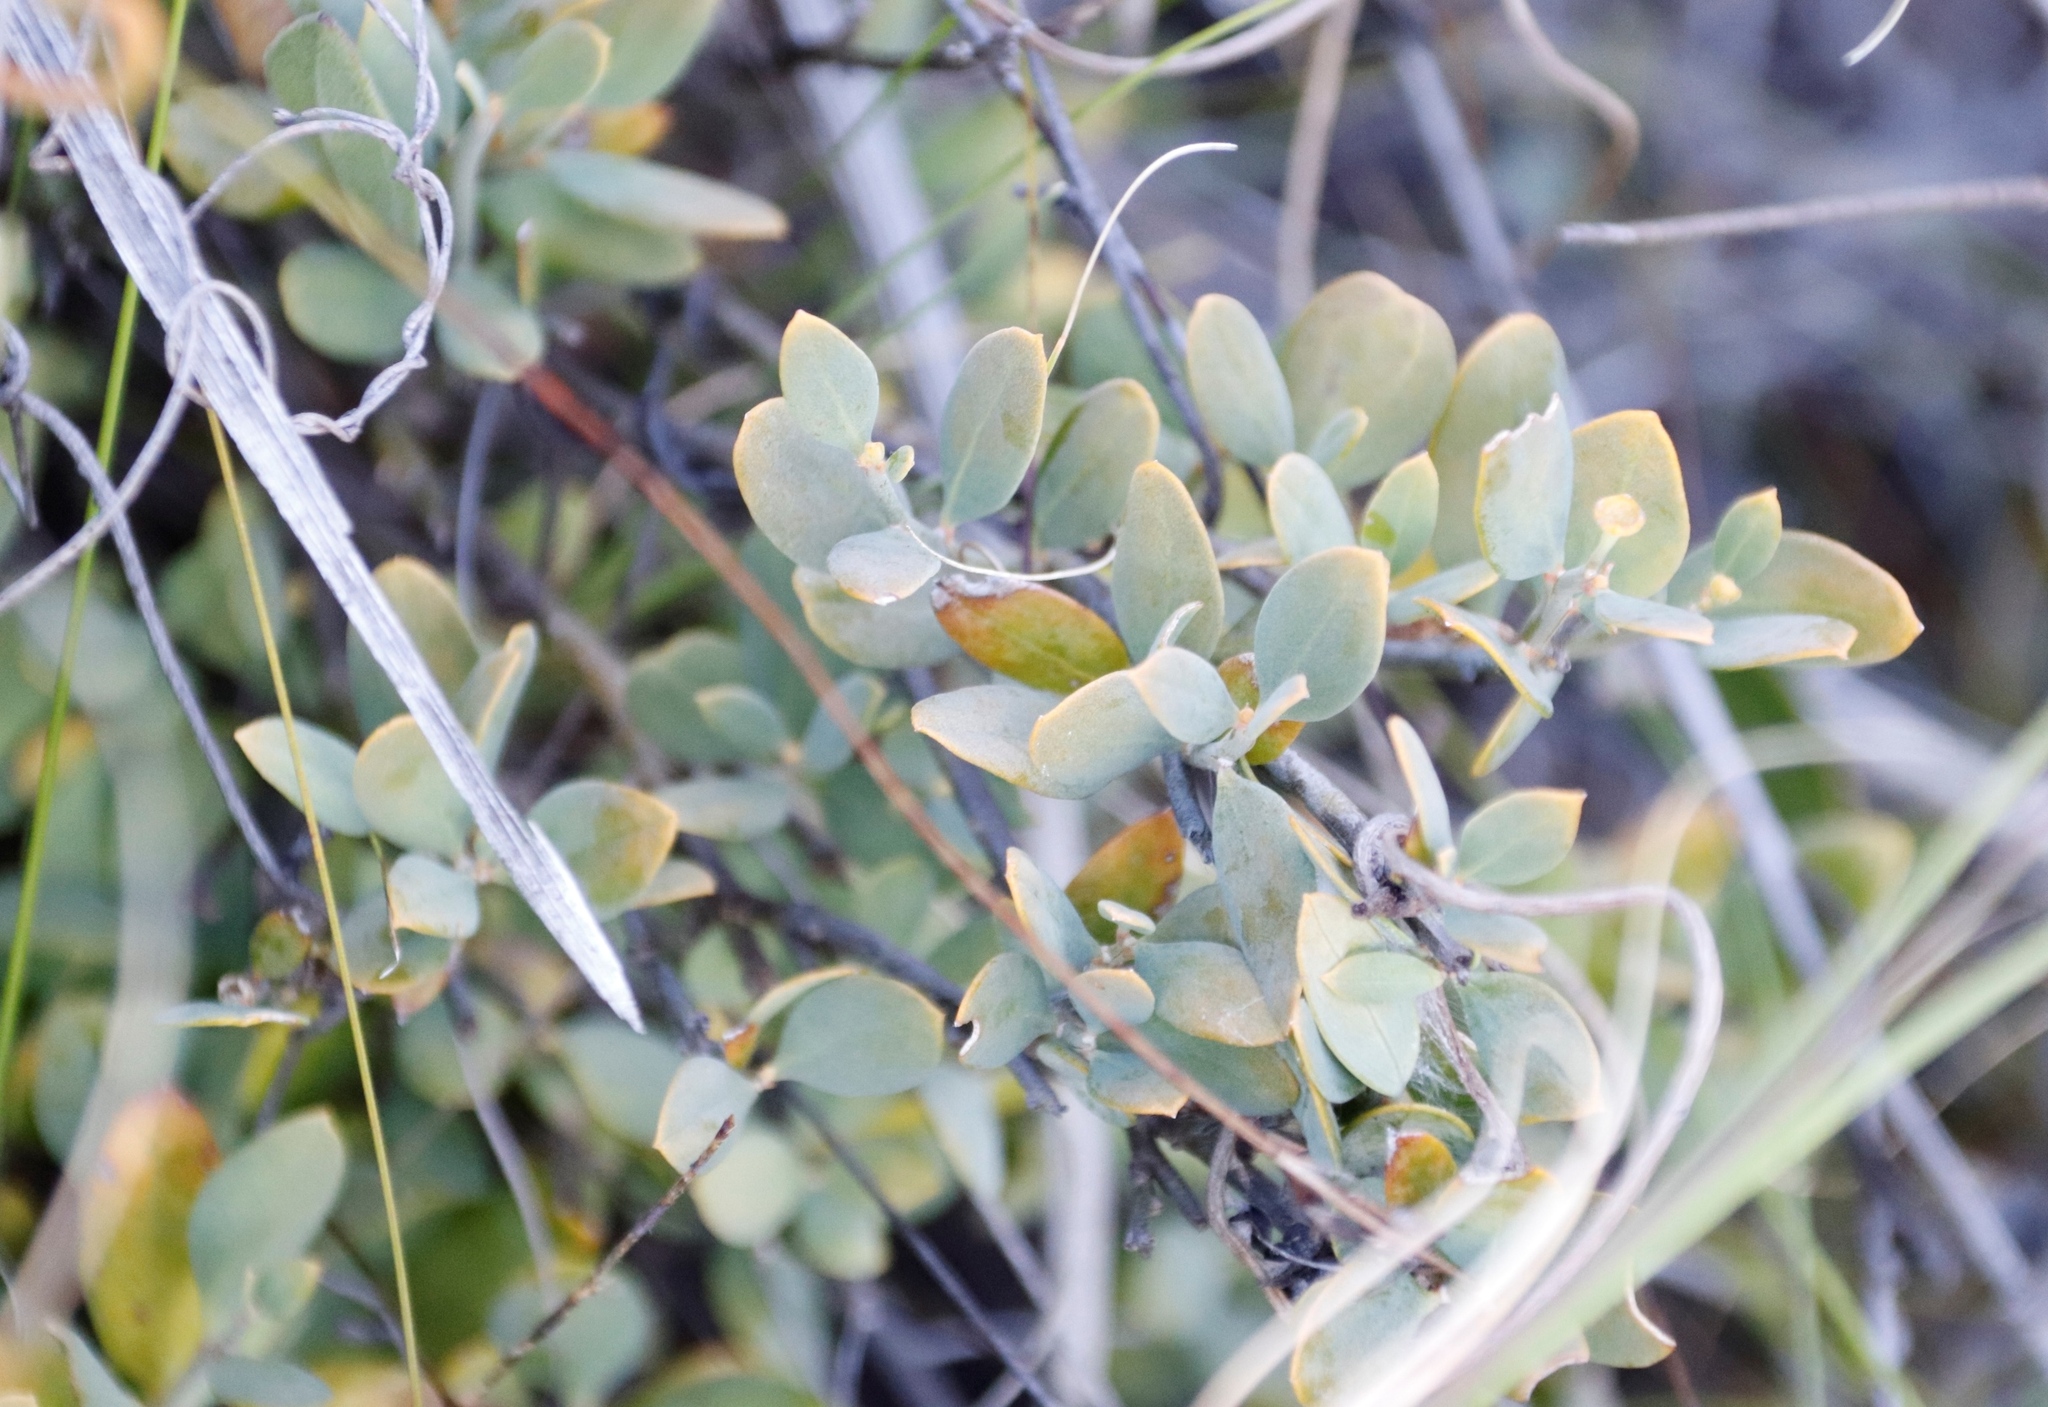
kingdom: Plantae
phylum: Tracheophyta
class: Magnoliopsida
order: Santalales
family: Santalaceae
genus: Osyris
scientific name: Osyris compressa
